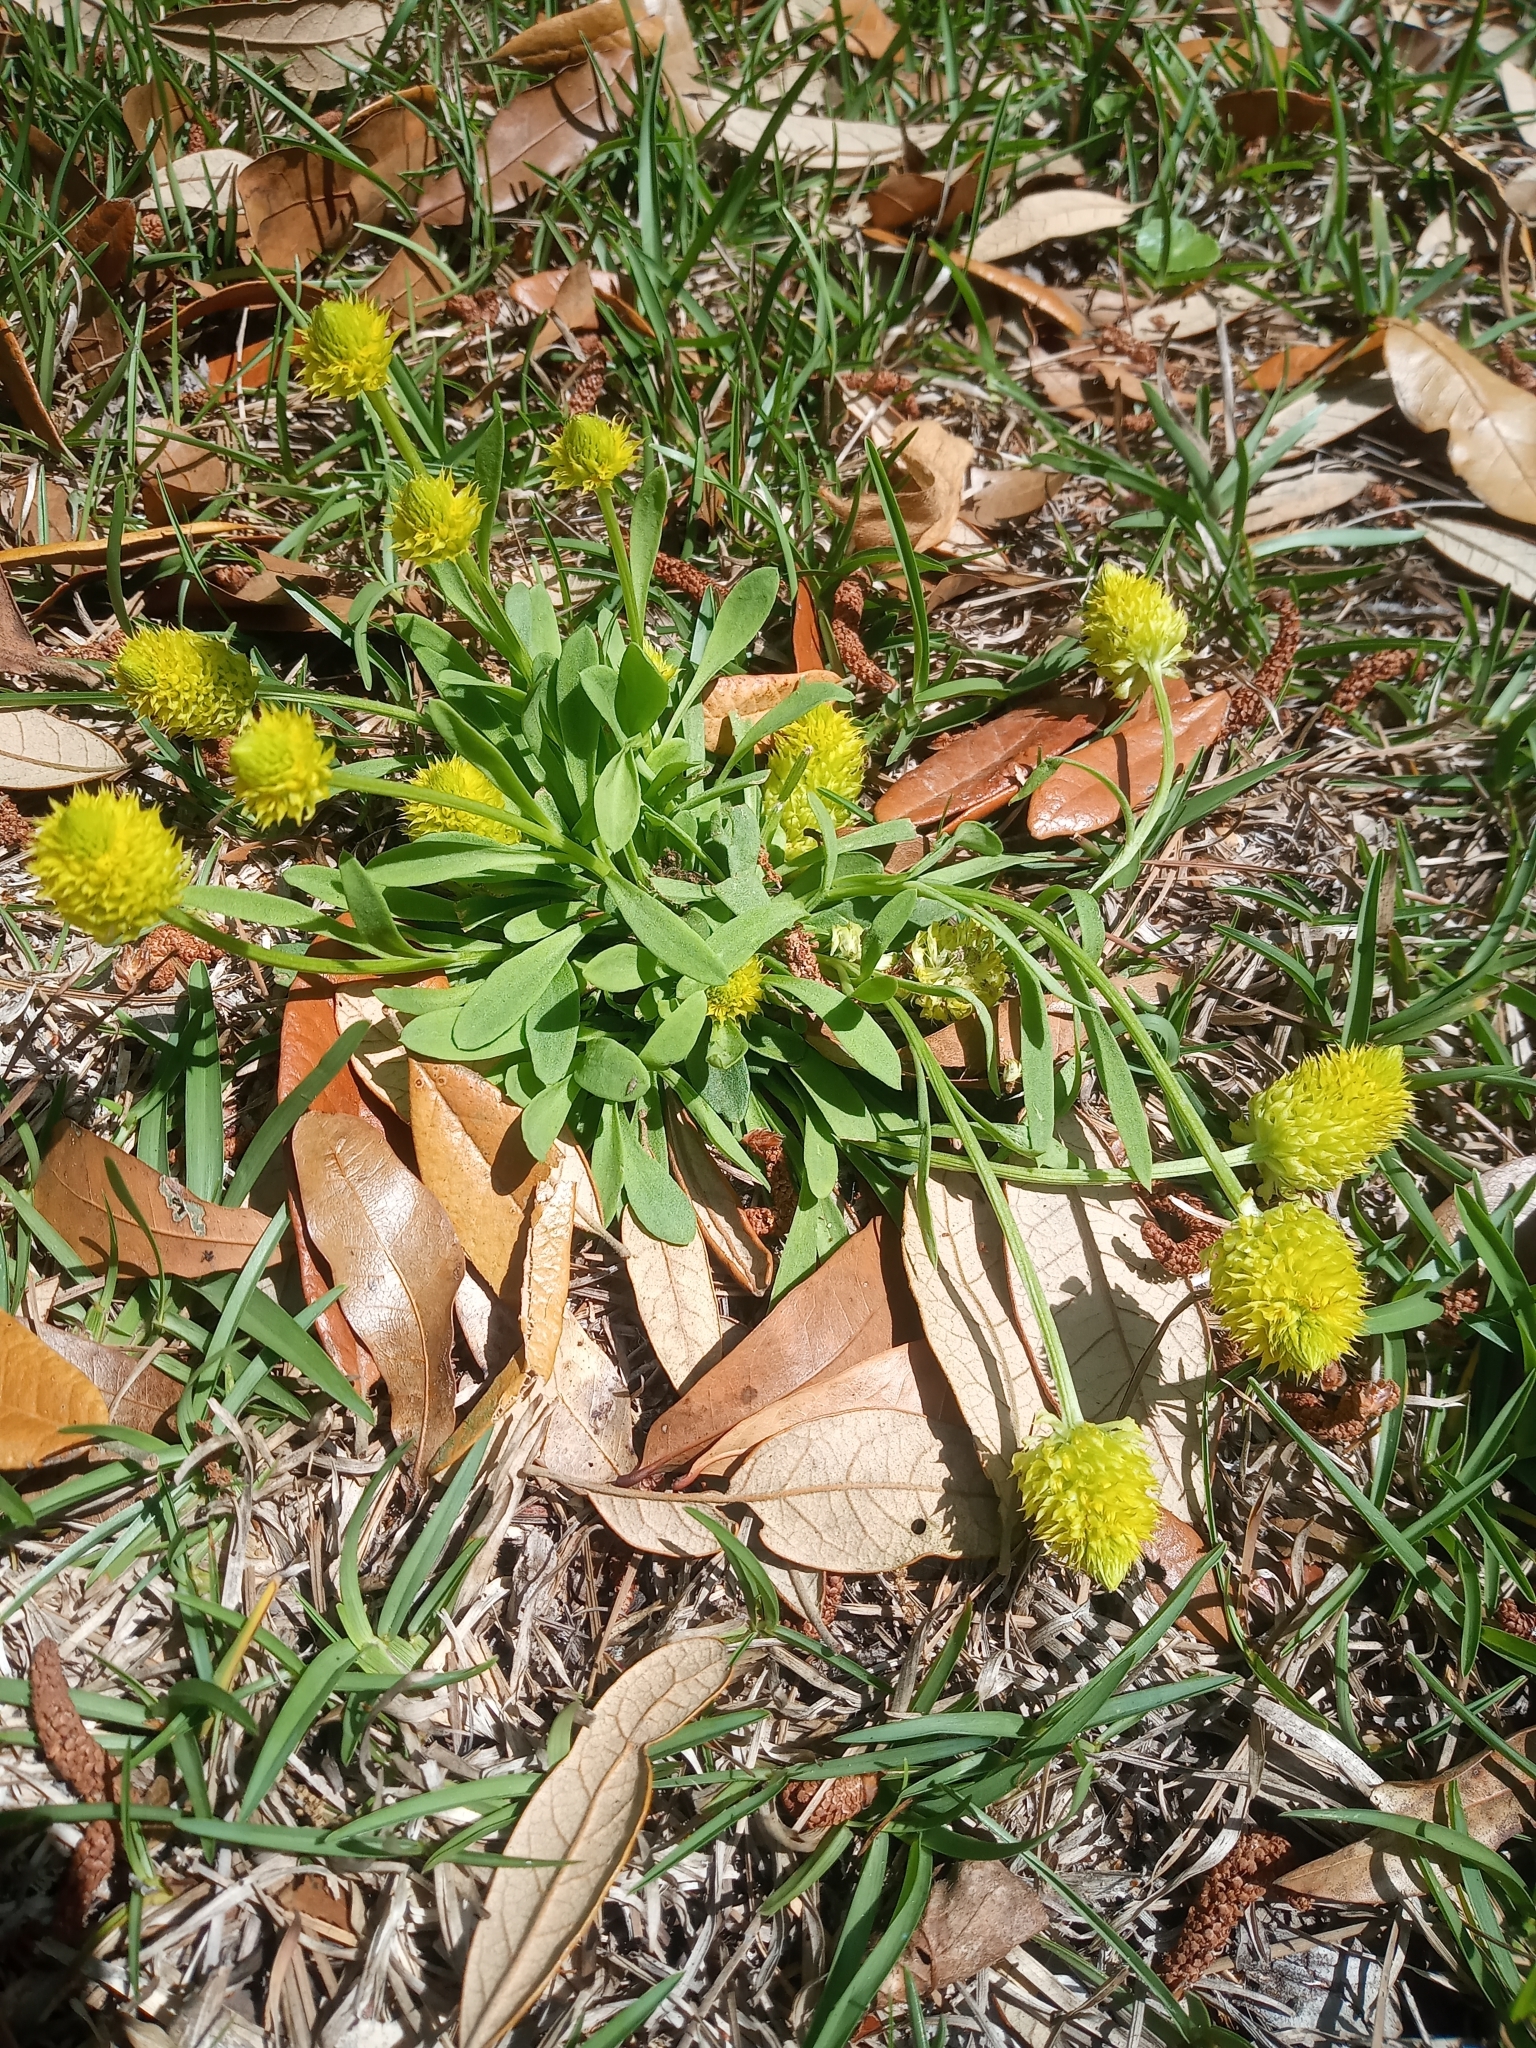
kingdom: Plantae
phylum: Tracheophyta
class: Magnoliopsida
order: Fabales
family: Polygalaceae
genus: Polygala
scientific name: Polygala nana
